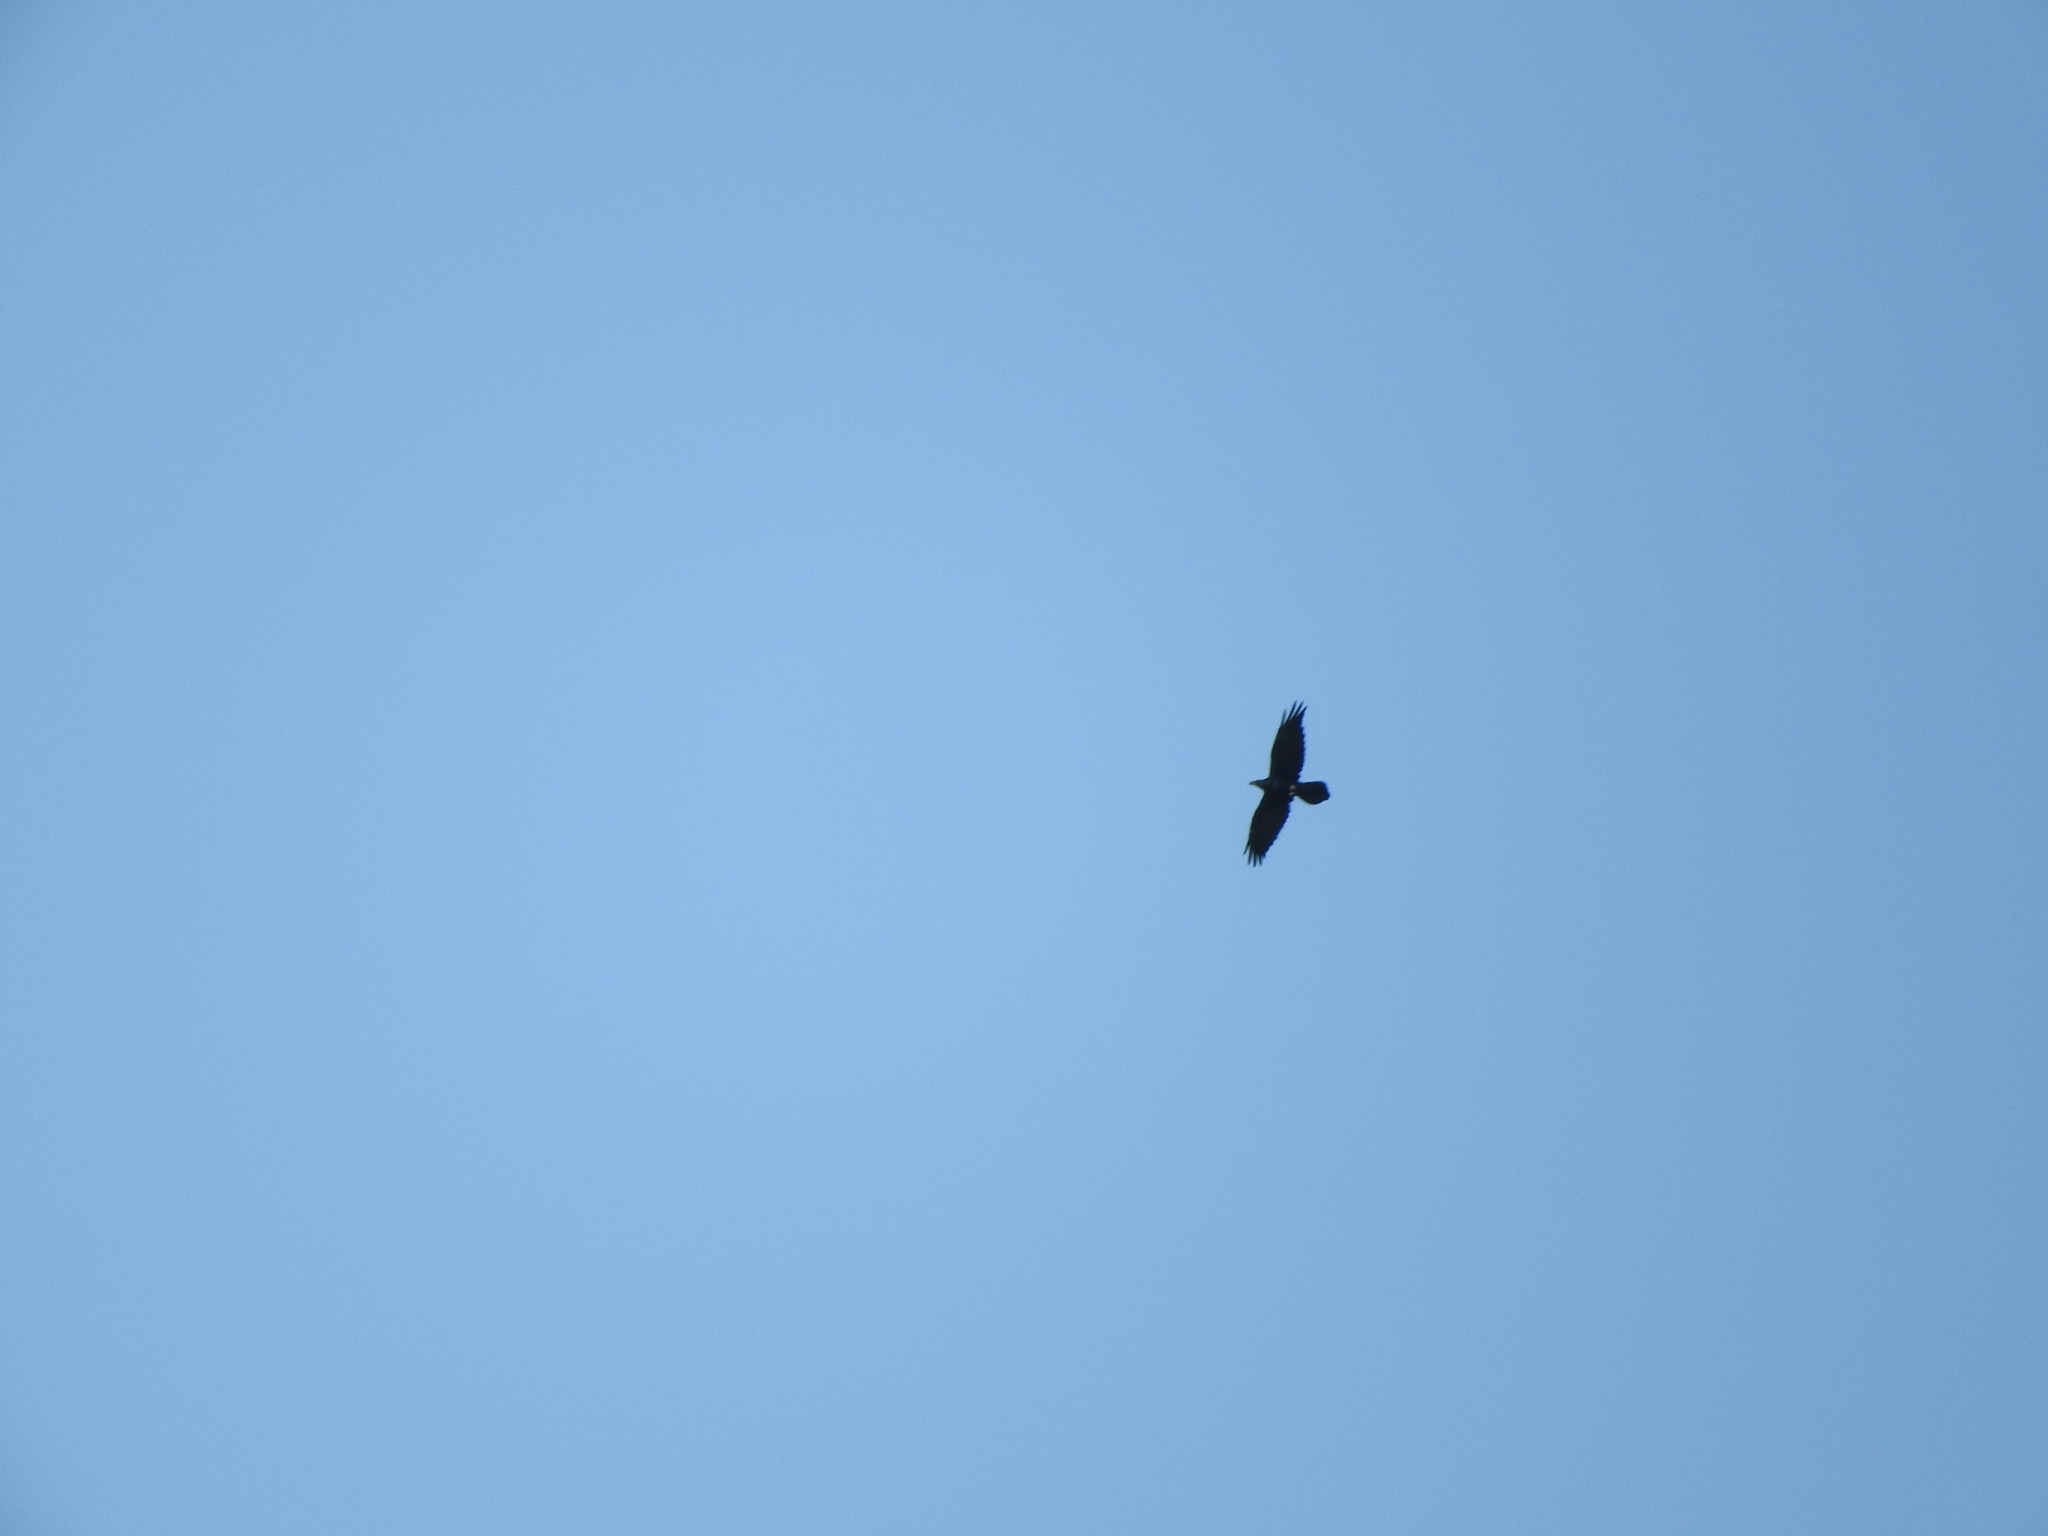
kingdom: Animalia
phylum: Chordata
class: Aves
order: Passeriformes
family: Corvidae
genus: Corvus
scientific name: Corvus corax
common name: Common raven
